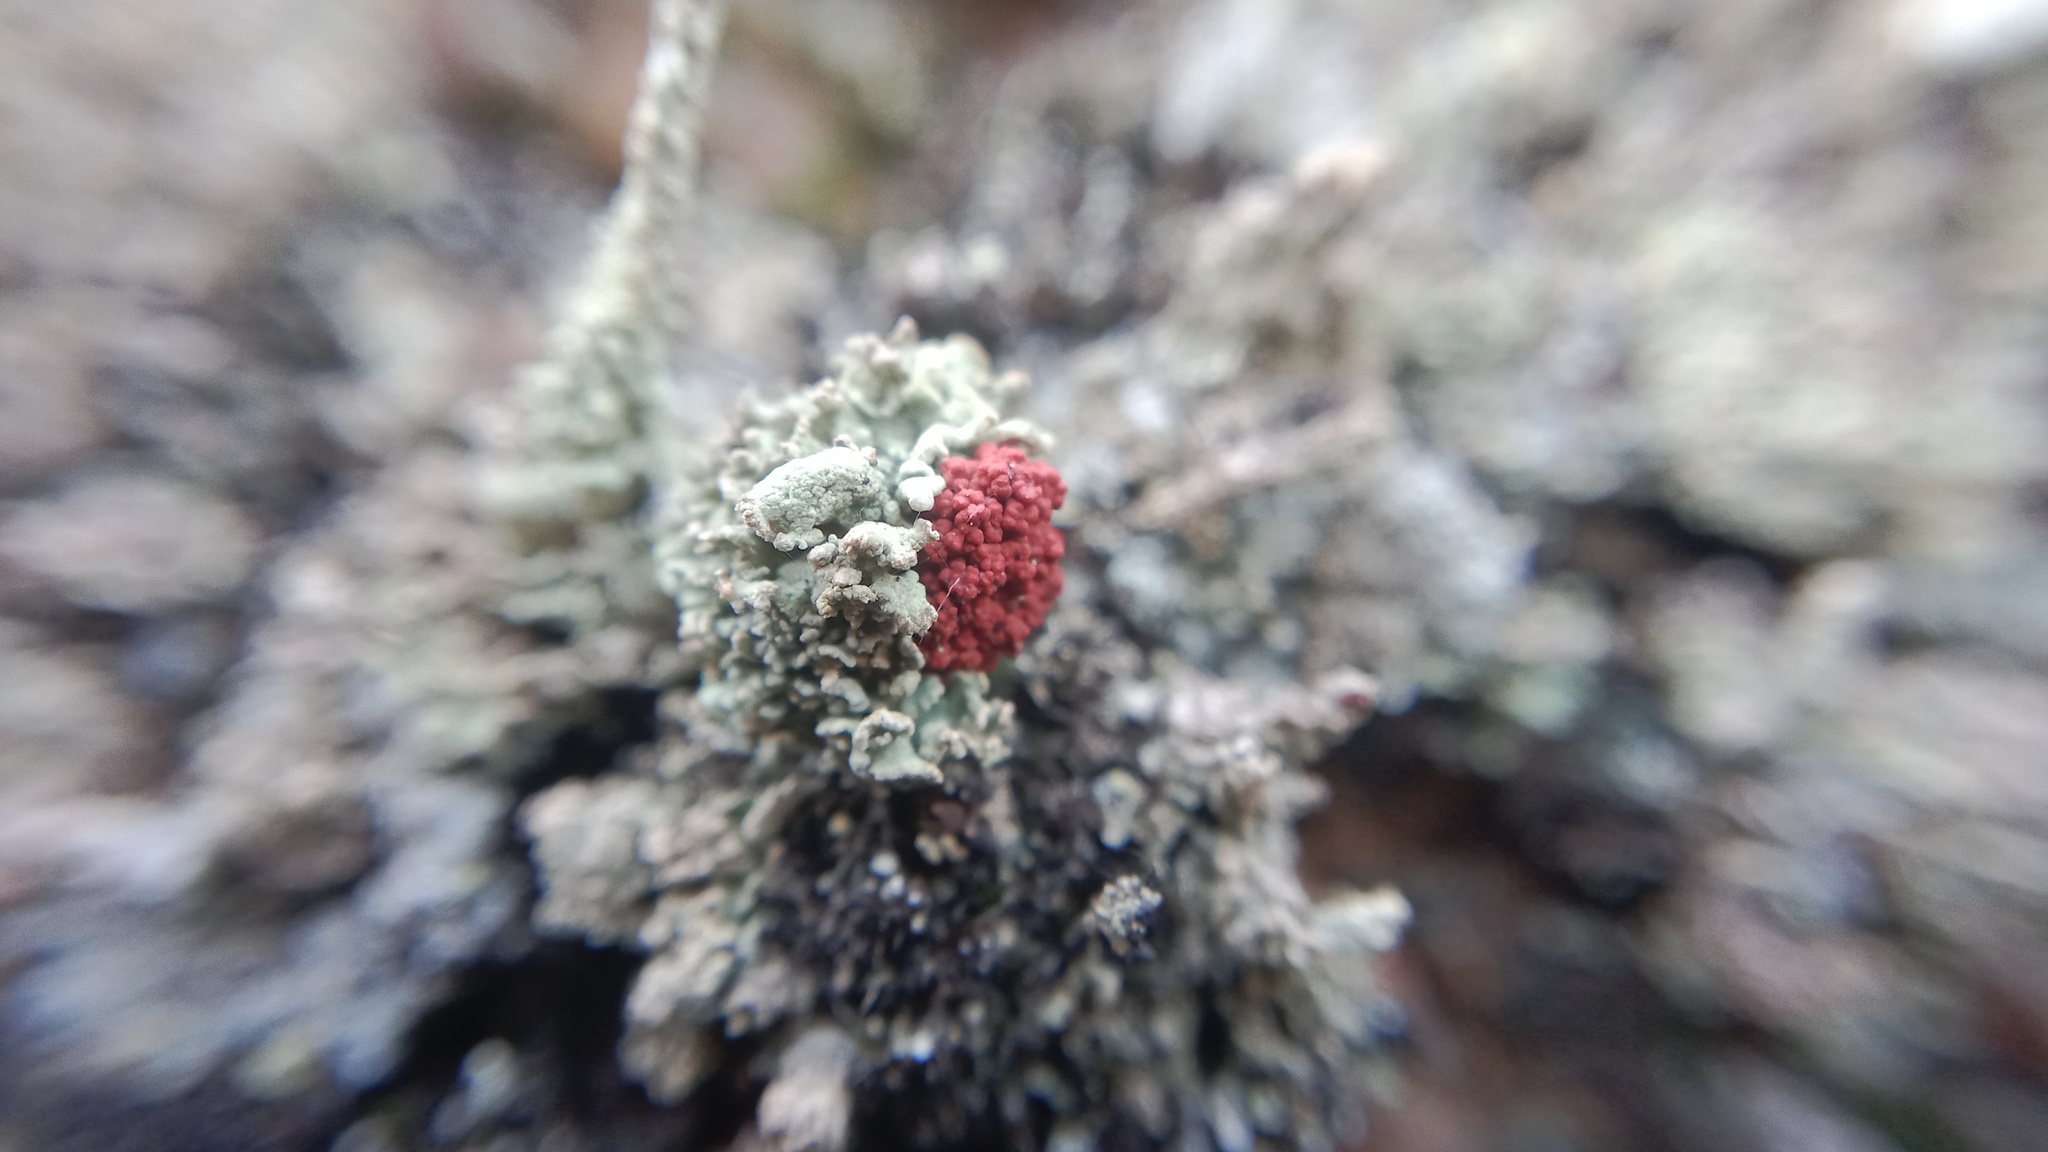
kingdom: Fungi
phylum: Ascomycota
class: Lecanoromycetes
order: Lecanorales
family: Cladoniaceae
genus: Cladonia
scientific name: Cladonia floerkeana
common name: Gritty british soldiers lichen
